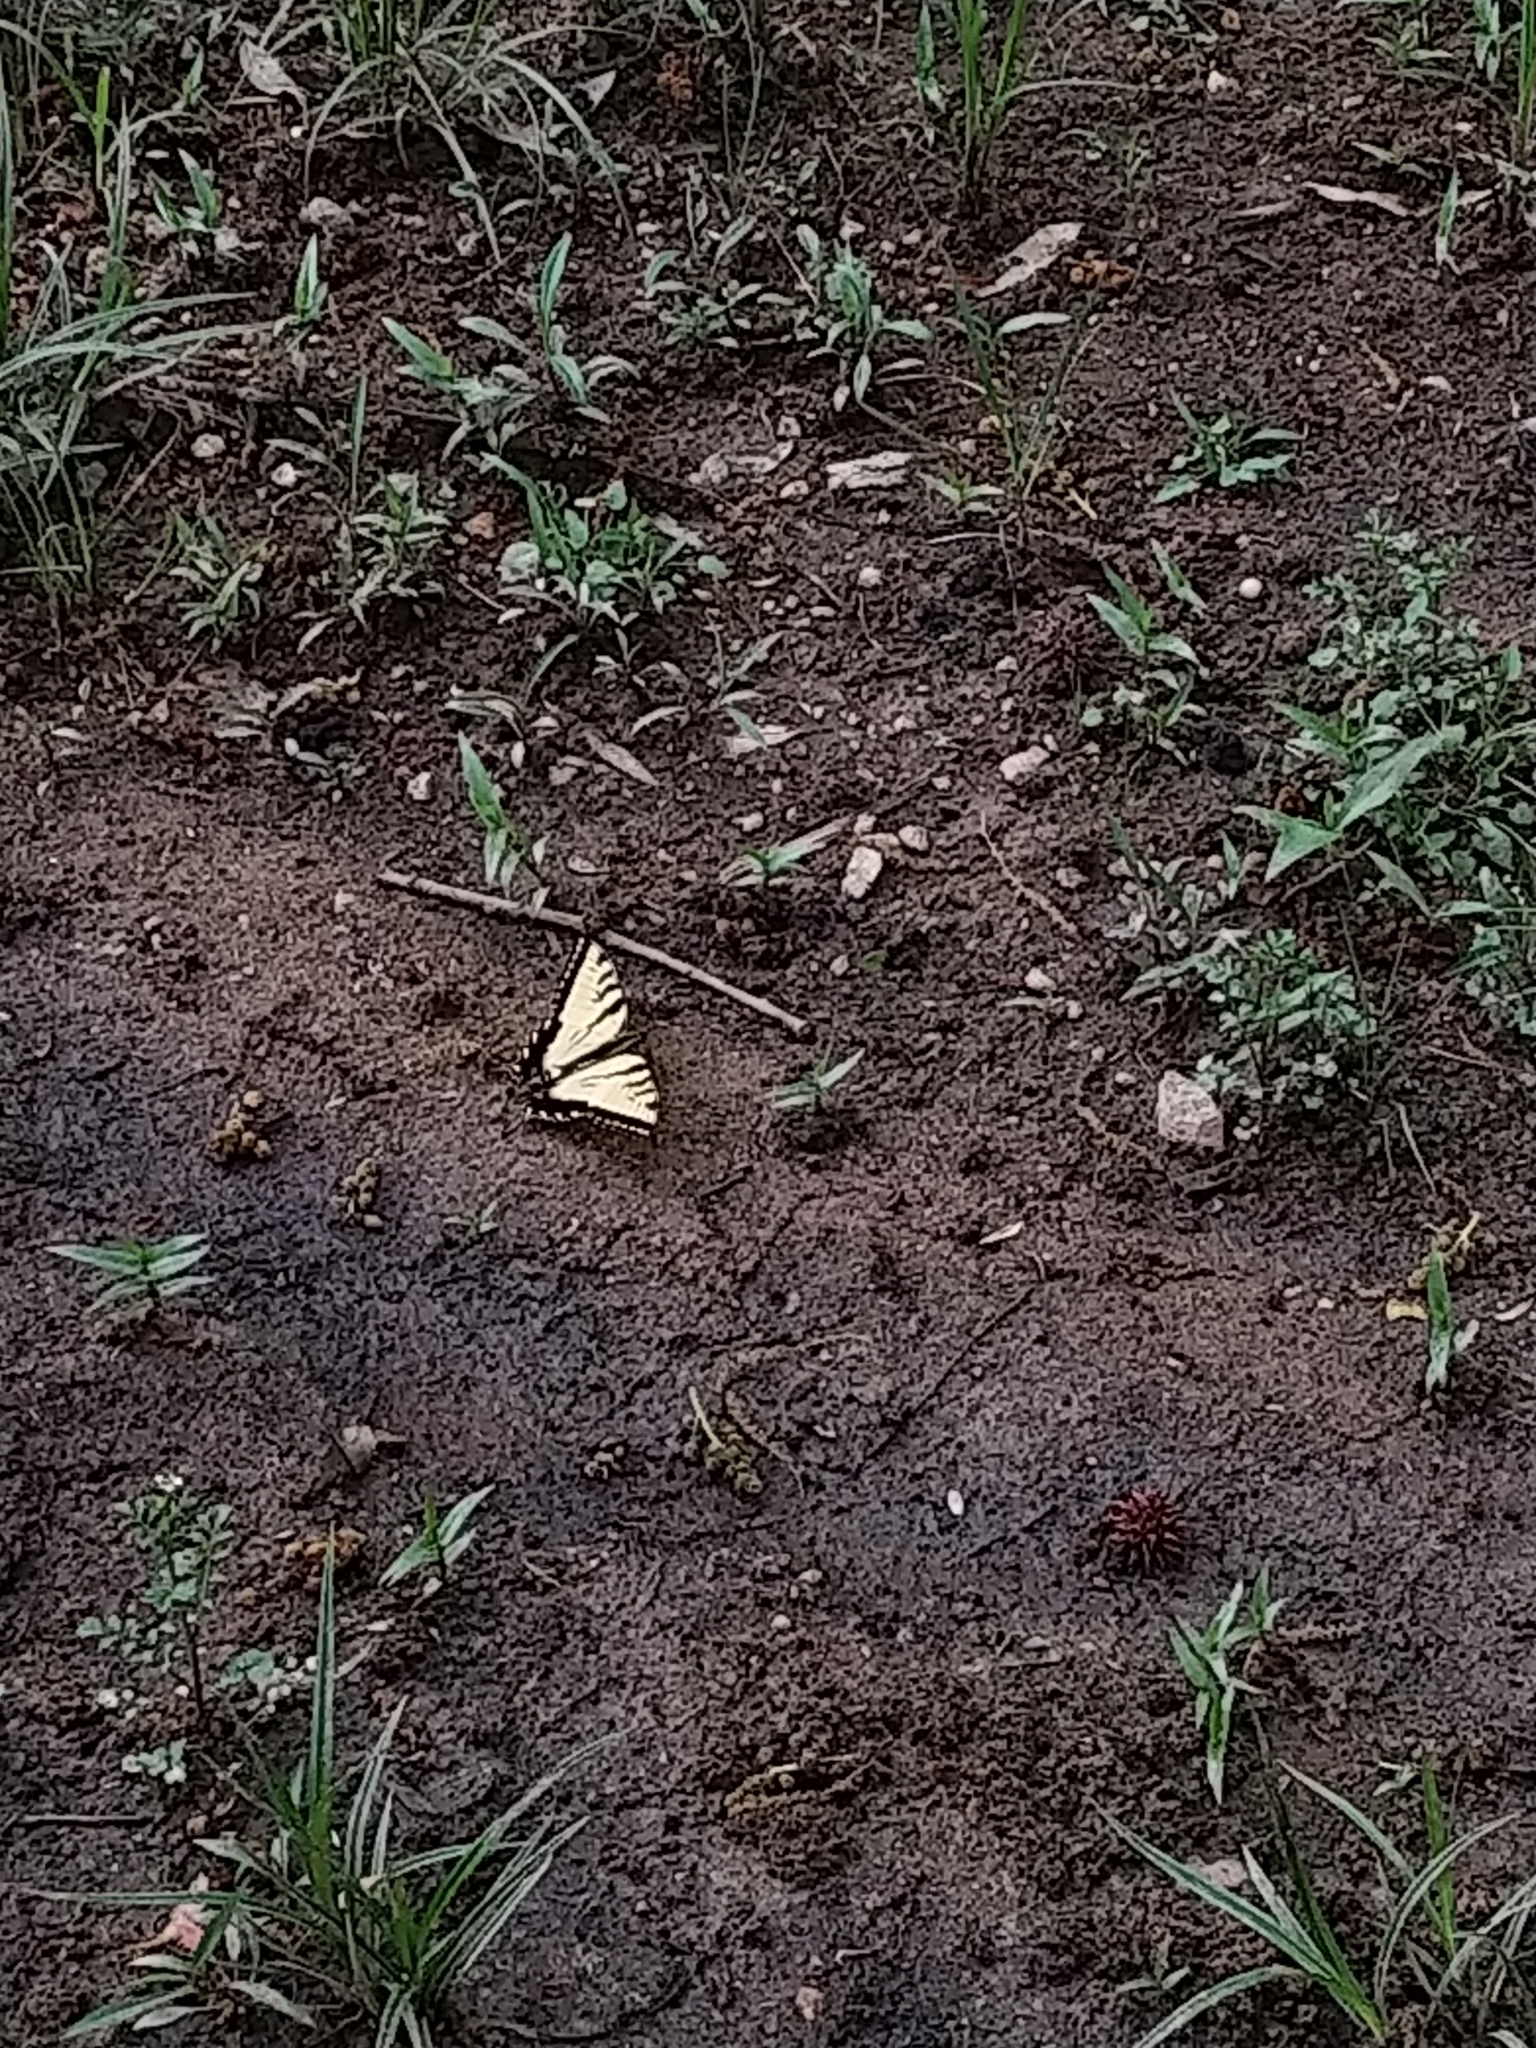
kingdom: Animalia
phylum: Arthropoda
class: Insecta
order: Lepidoptera
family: Papilionidae
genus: Papilio
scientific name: Papilio glaucus
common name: Tiger swallowtail
